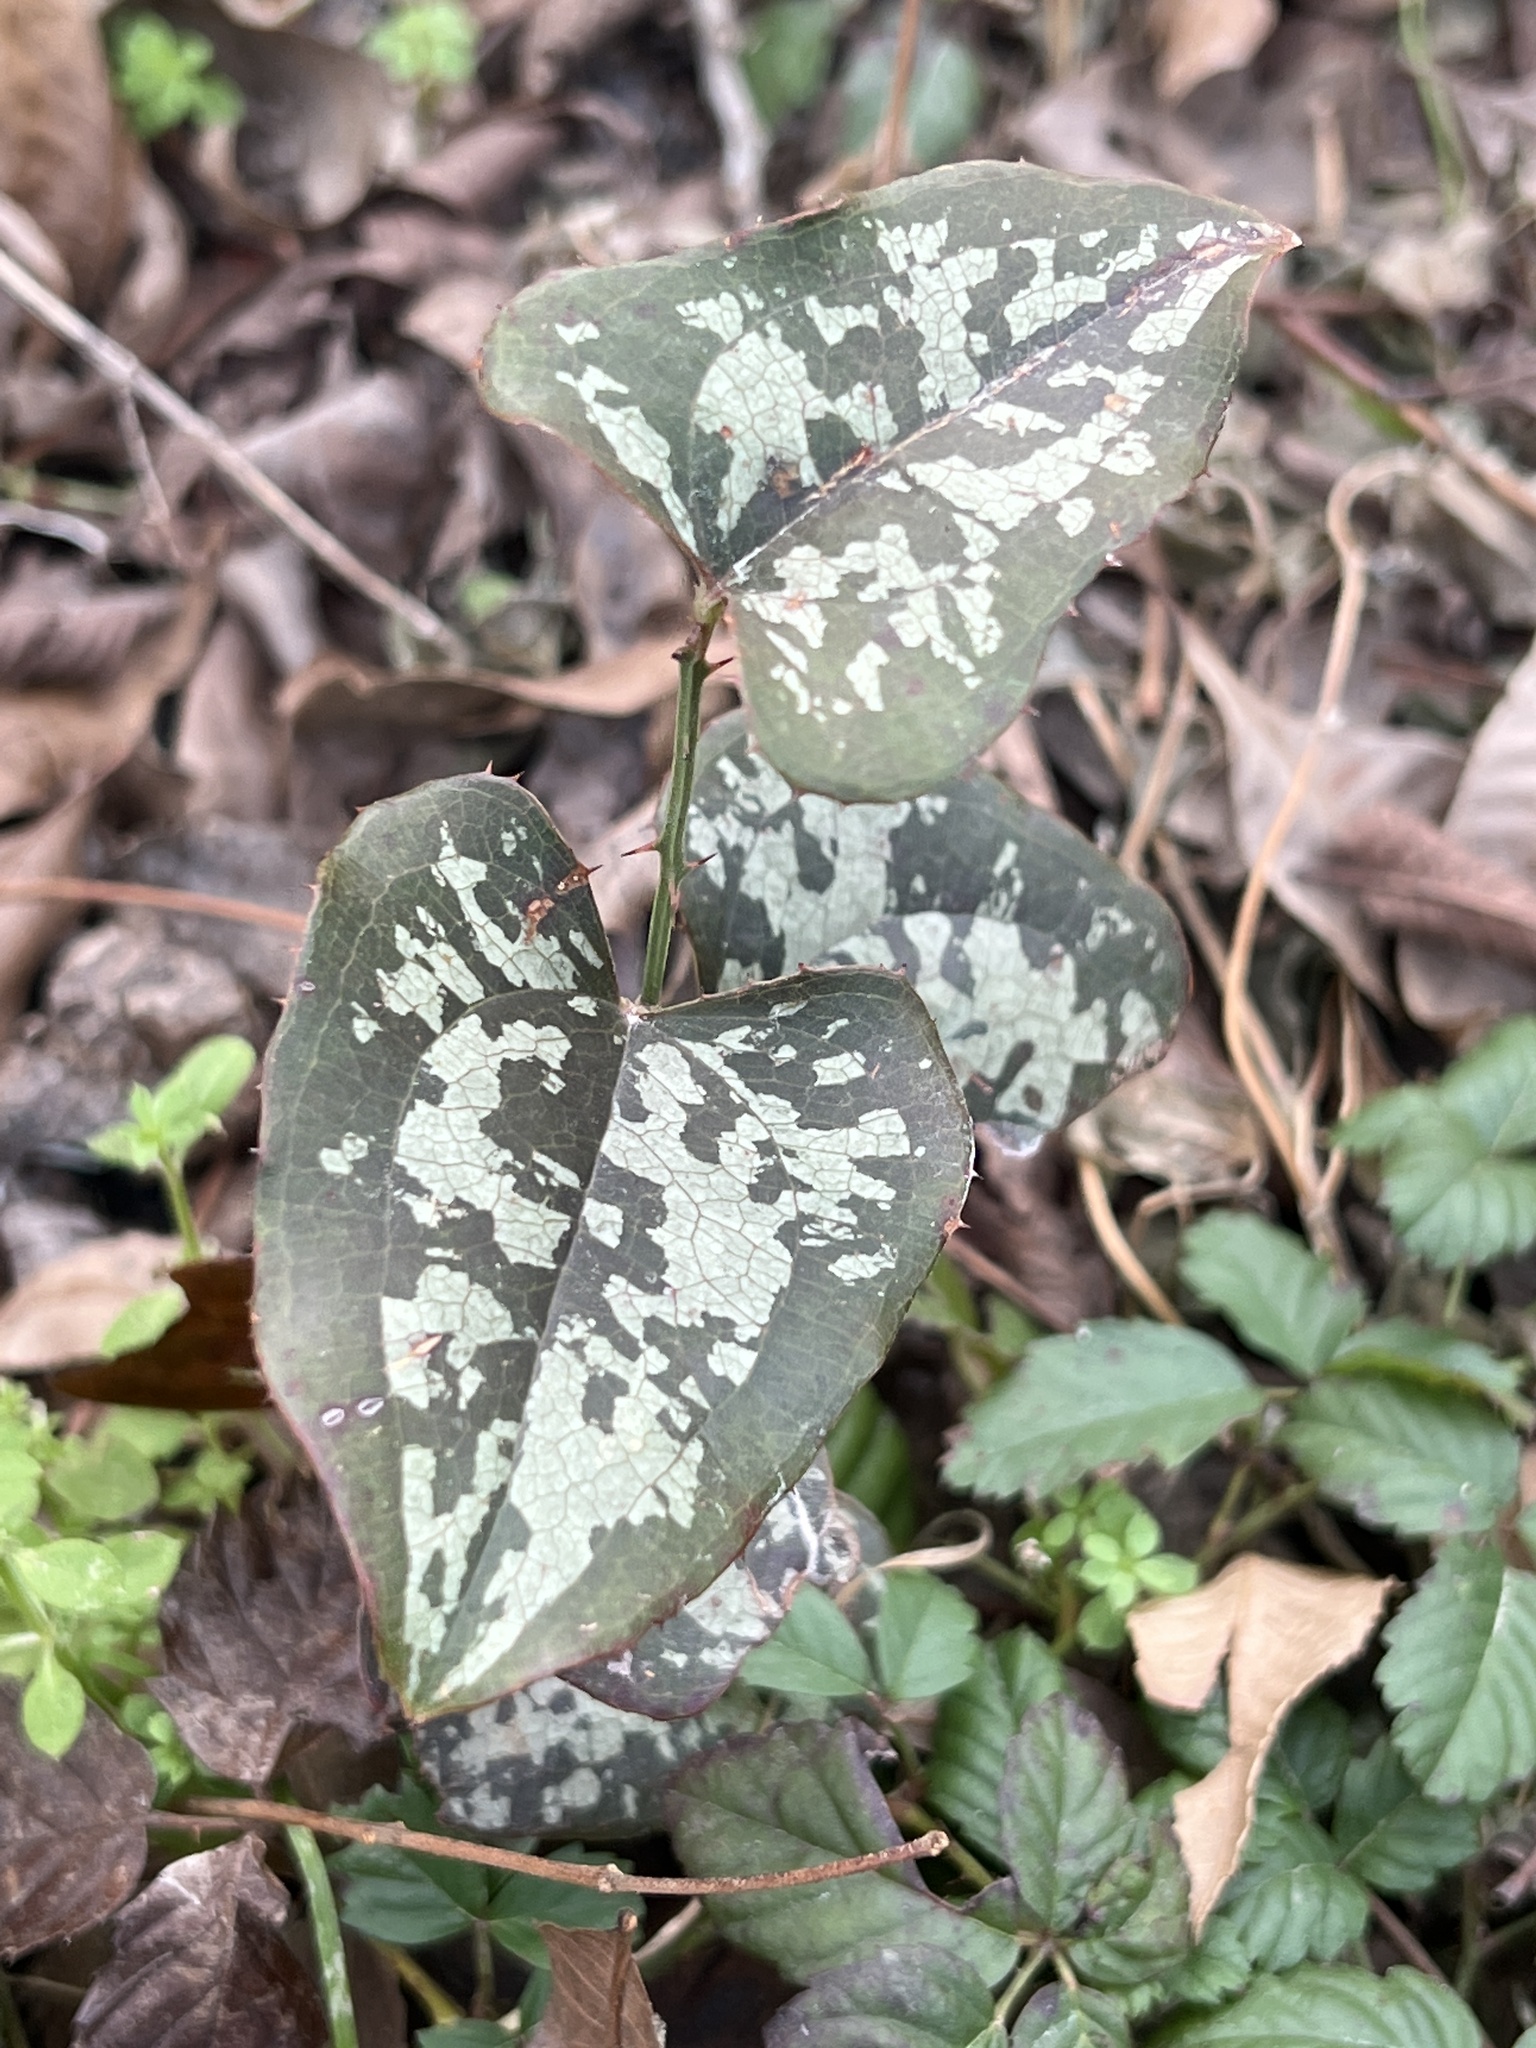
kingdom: Plantae
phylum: Tracheophyta
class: Liliopsida
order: Liliales
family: Smilacaceae
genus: Smilax
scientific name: Smilax bona-nox
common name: Catbrier
